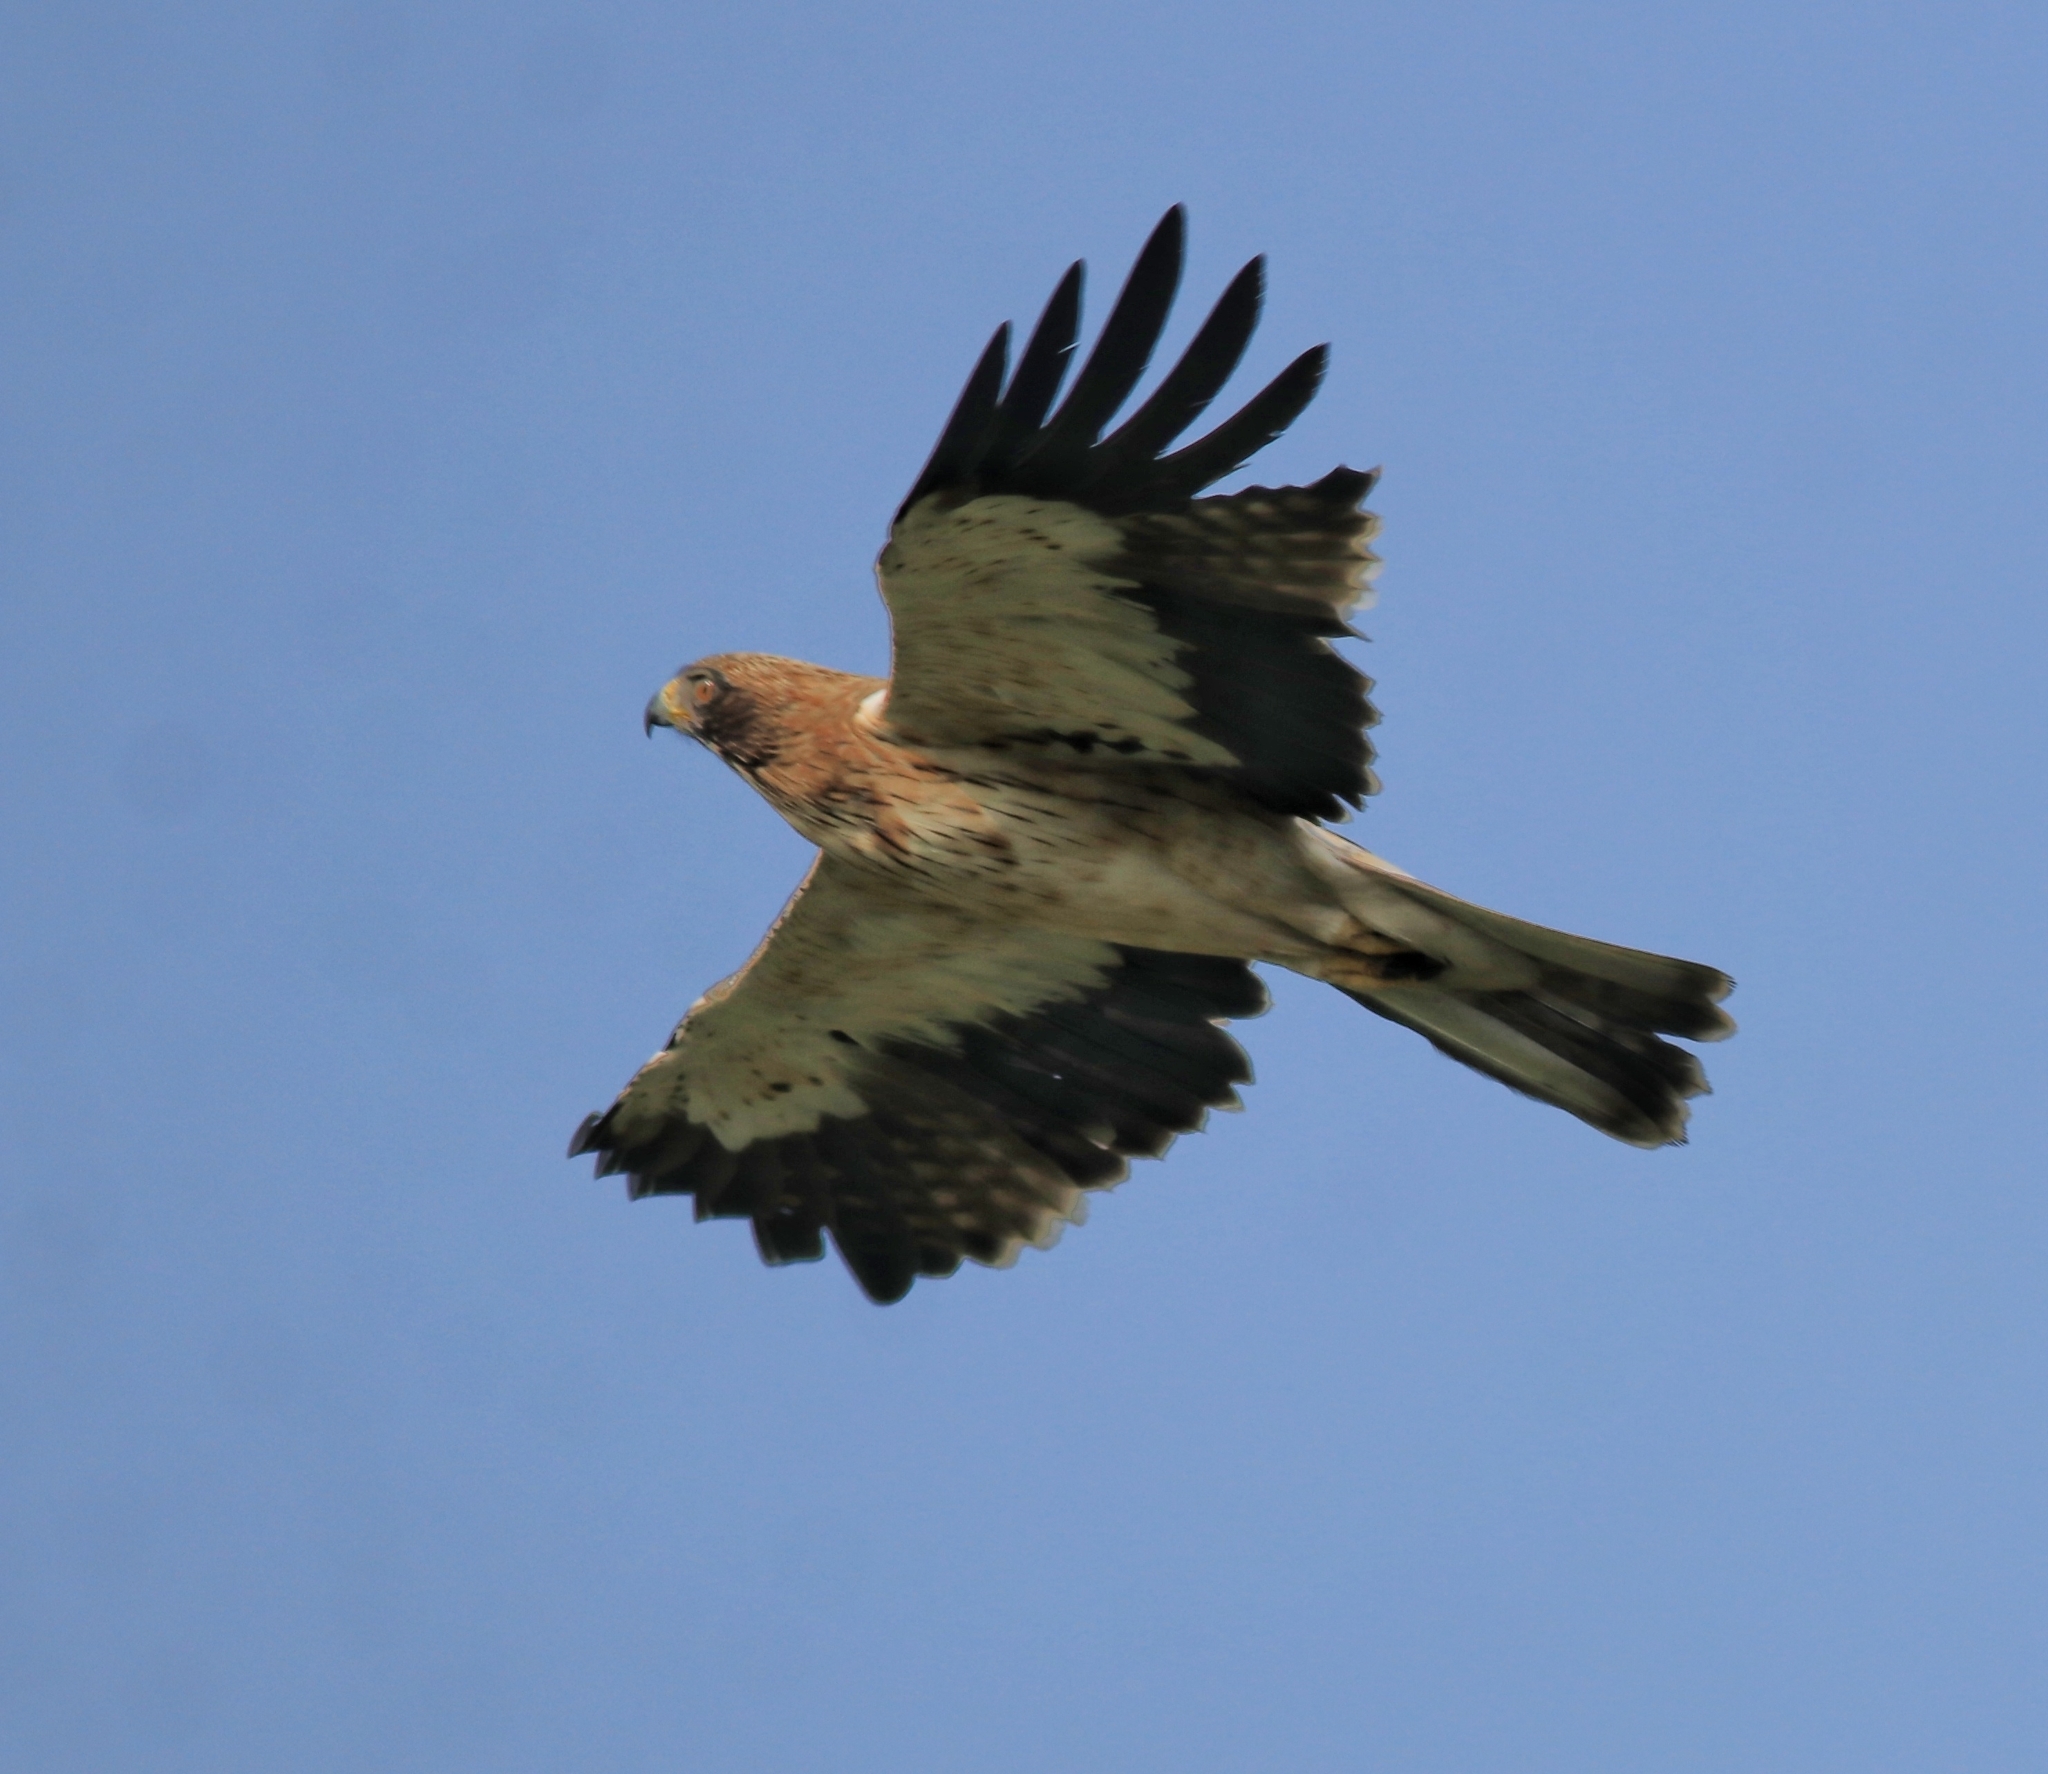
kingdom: Animalia
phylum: Chordata
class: Aves
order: Accipitriformes
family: Accipitridae
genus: Hieraaetus
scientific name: Hieraaetus pennatus
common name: Booted eagle
